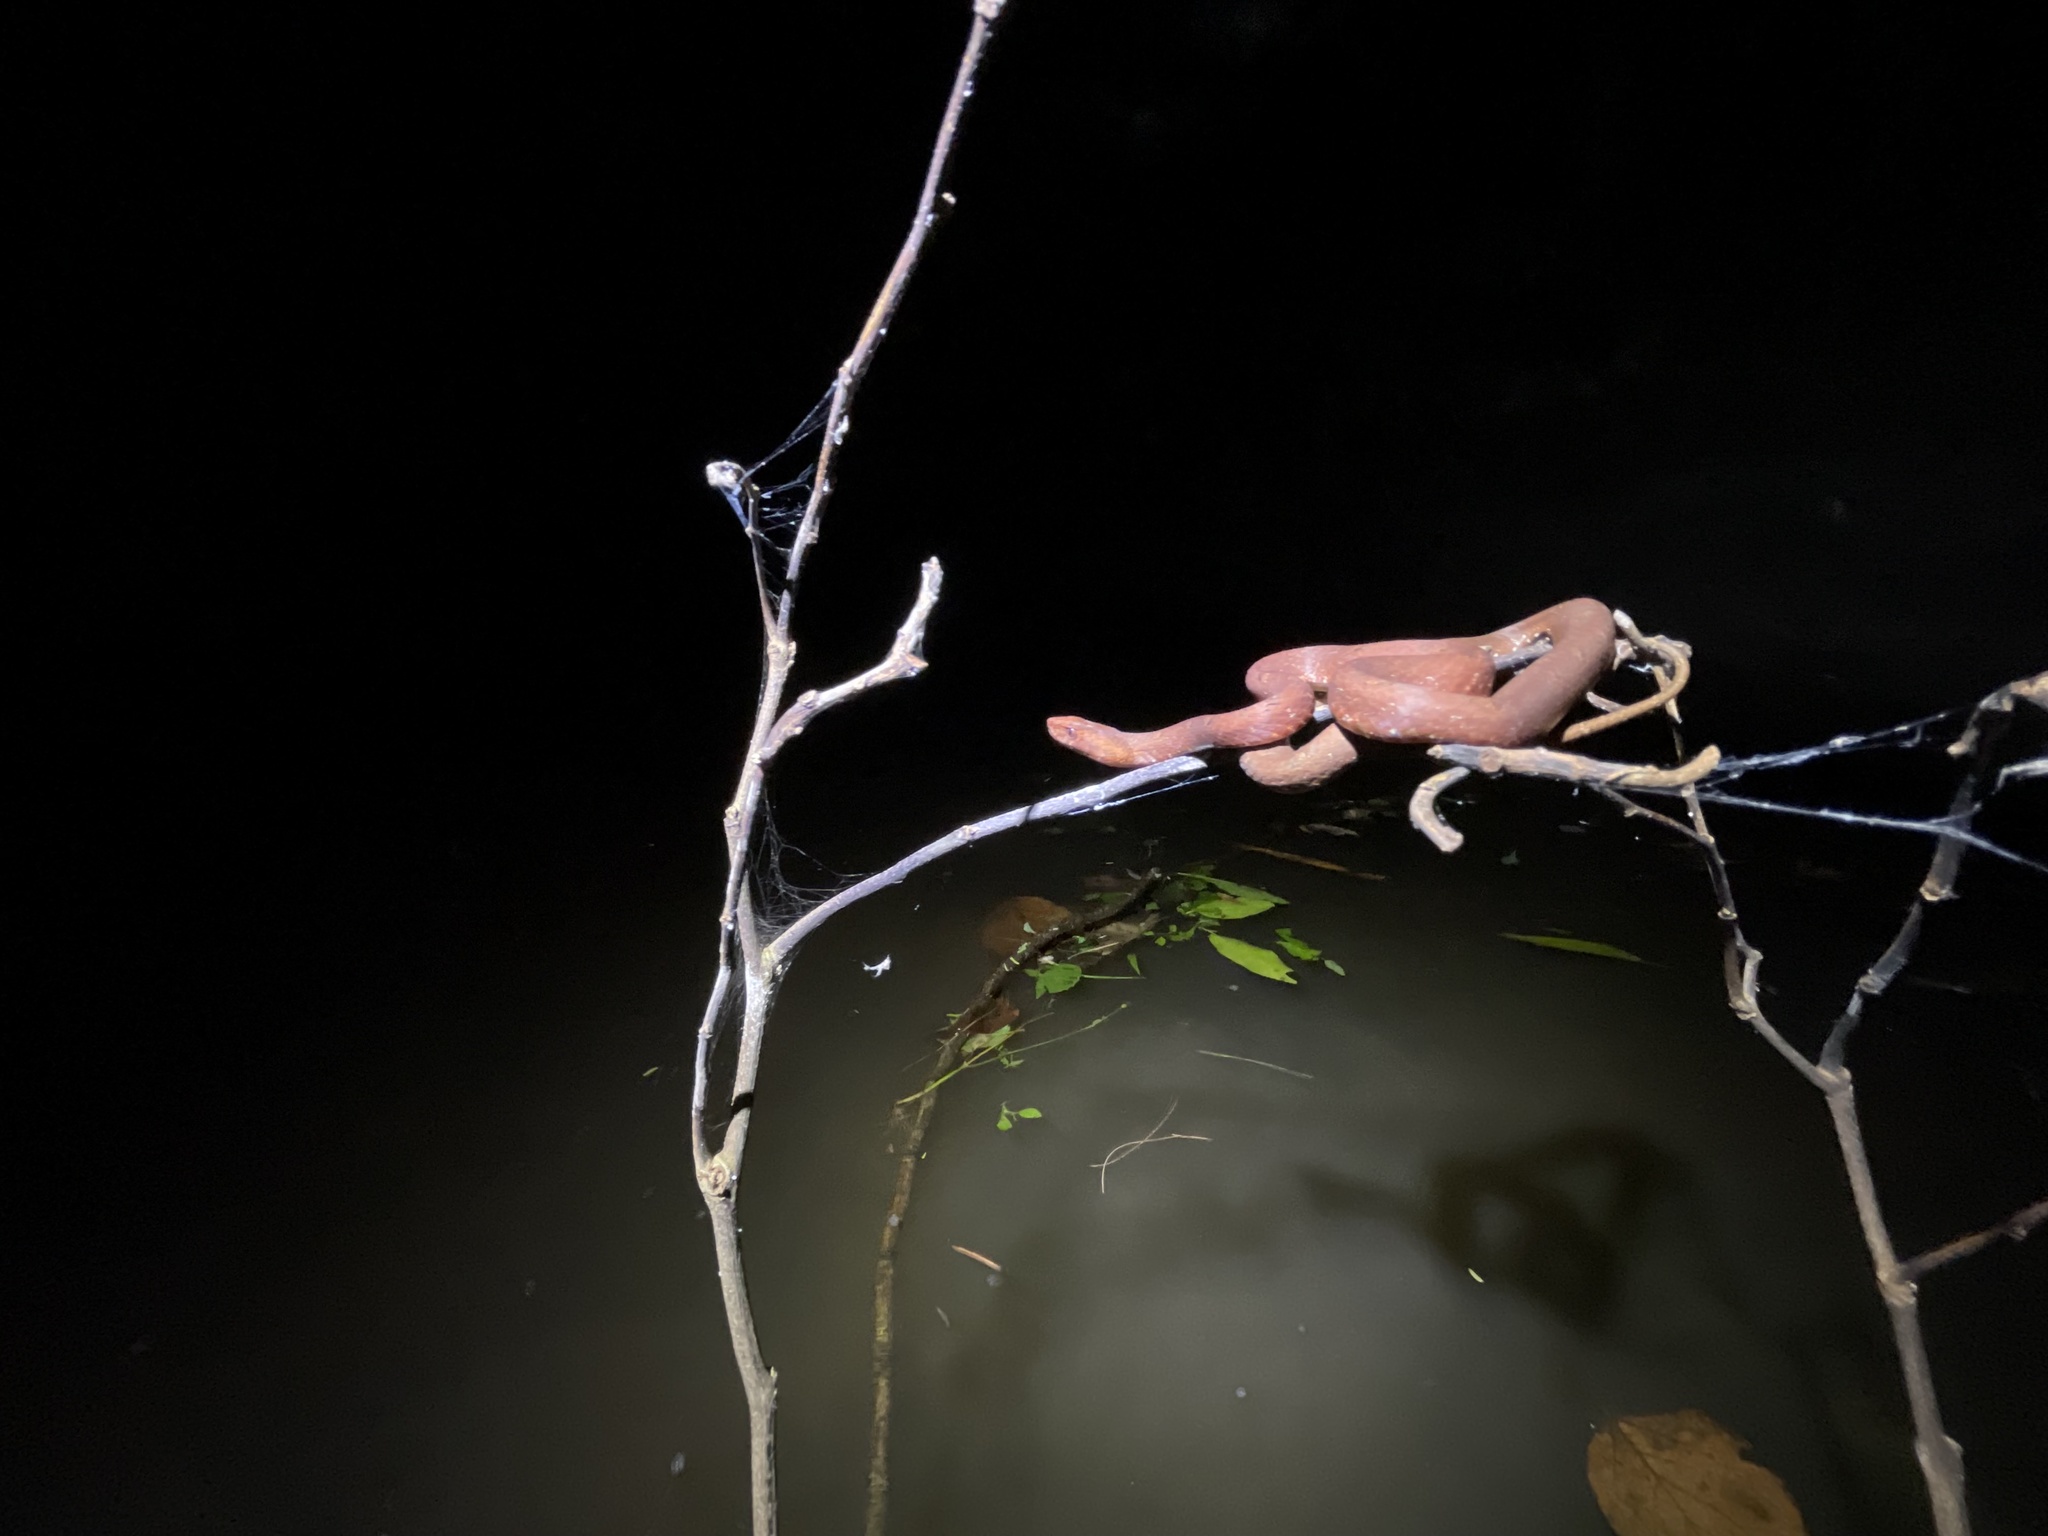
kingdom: Animalia
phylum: Chordata
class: Squamata
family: Pseudaspididae
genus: Psammodynastes
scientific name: Psammodynastes pulverulentus
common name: Common mock viper
